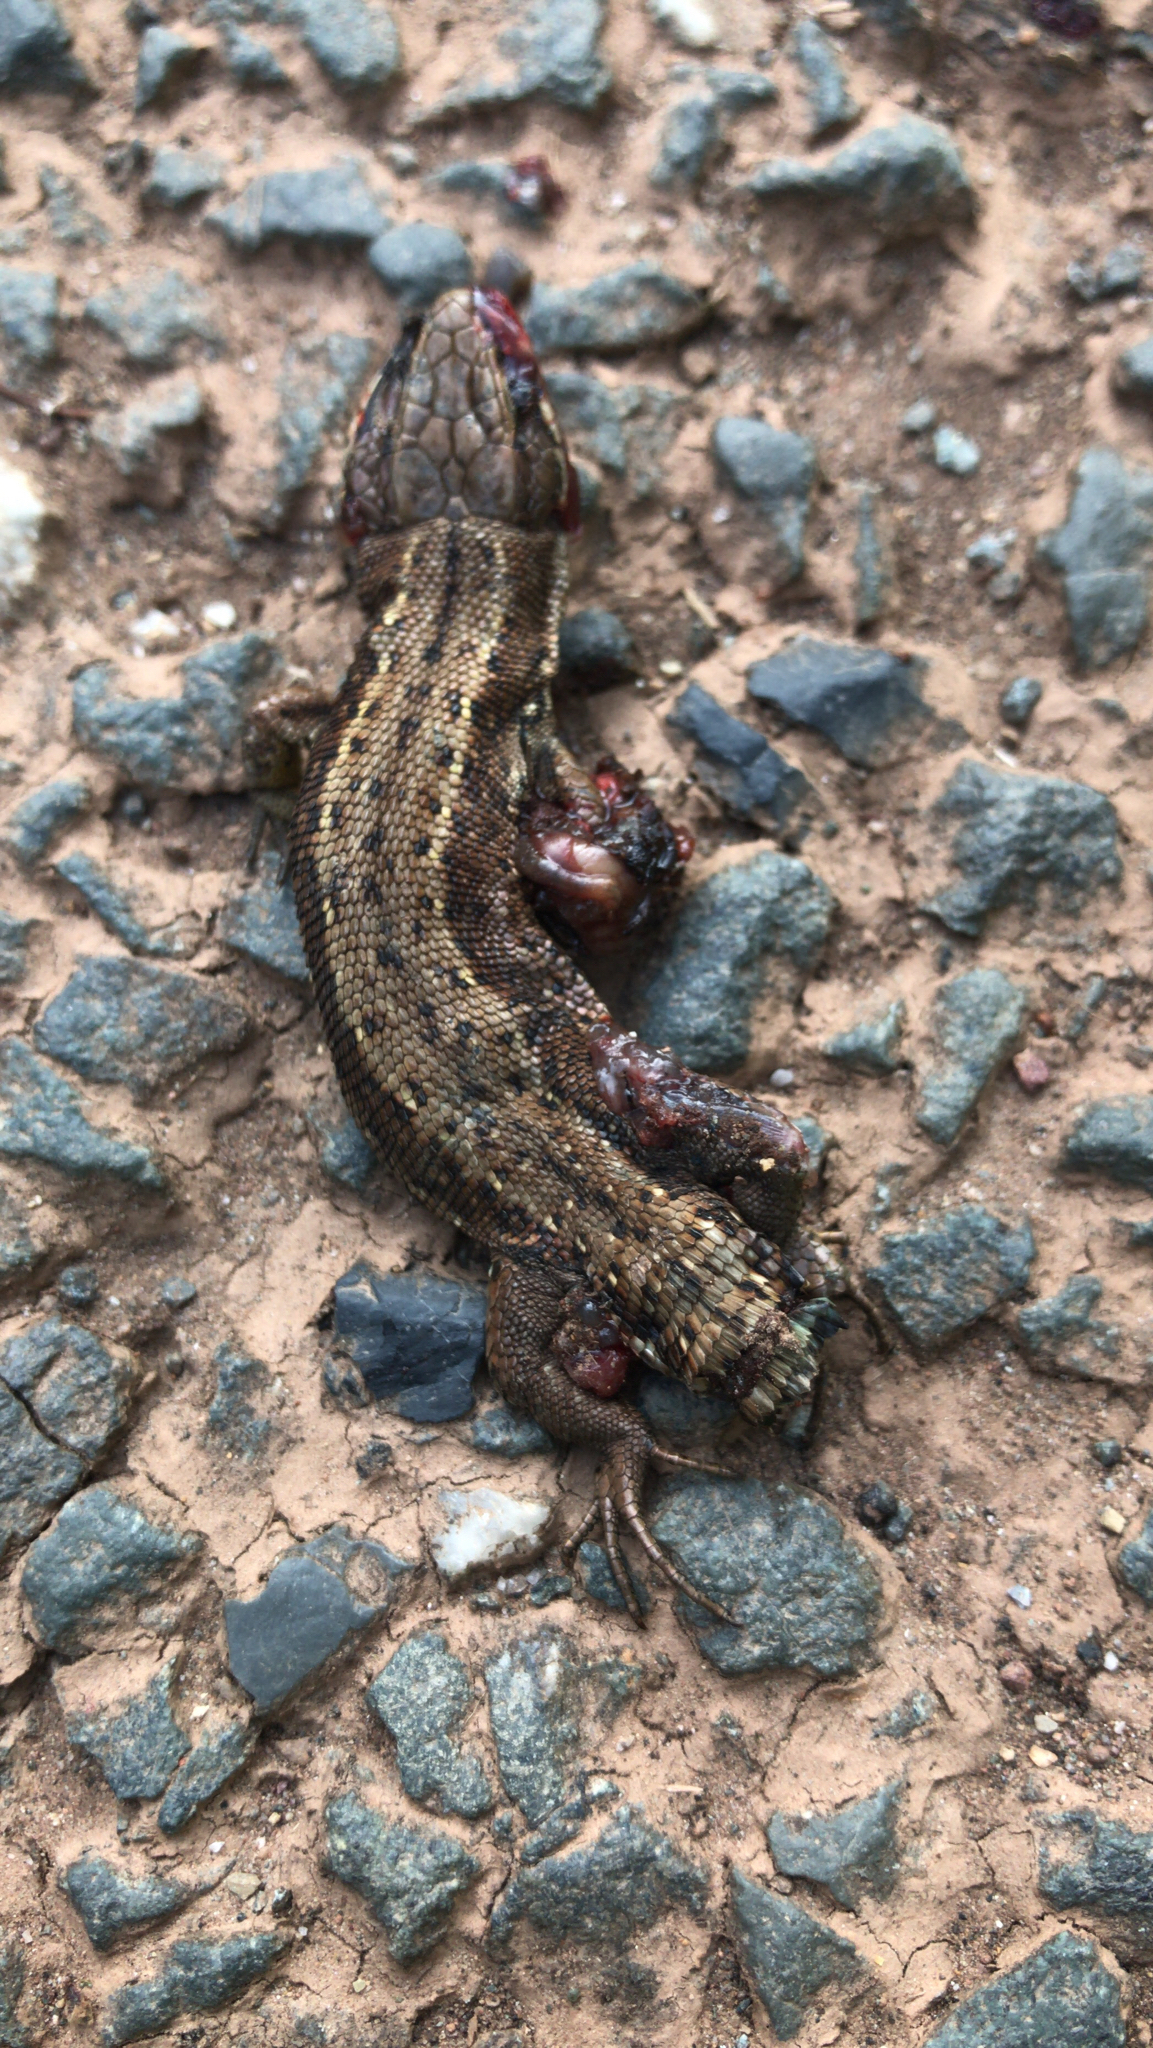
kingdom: Animalia
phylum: Chordata
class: Squamata
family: Lacertidae
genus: Zootoca
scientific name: Zootoca vivipara
